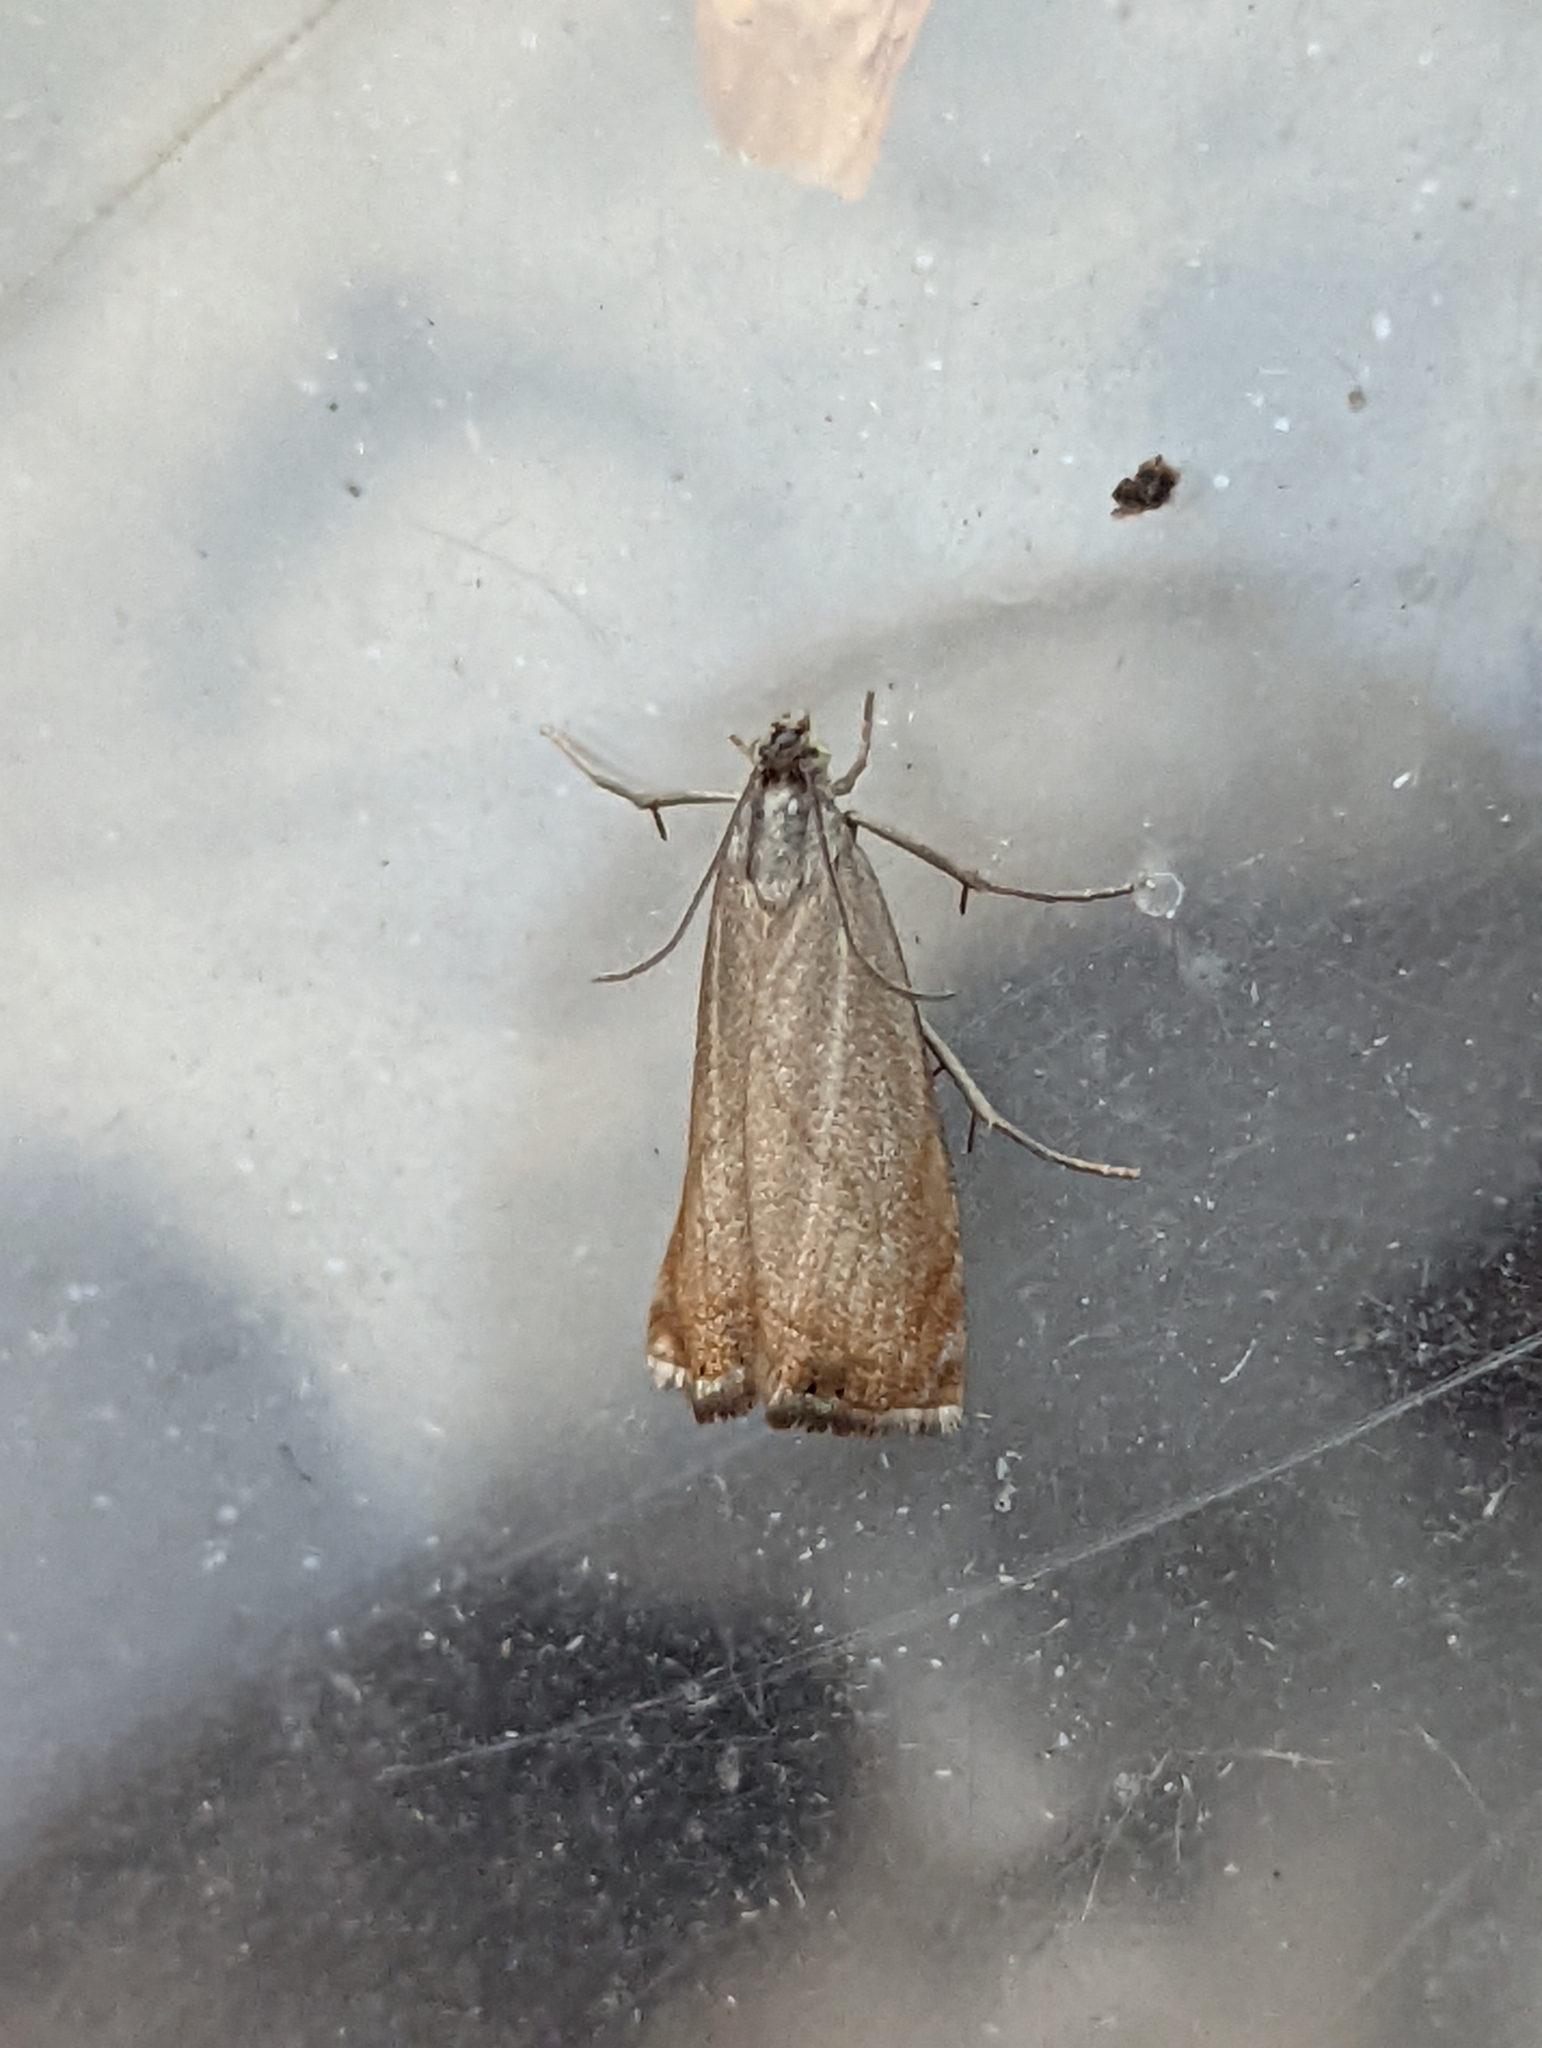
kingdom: Animalia
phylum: Arthropoda
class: Insecta
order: Lepidoptera
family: Crambidae
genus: Chrysoteuchia
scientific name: Chrysoteuchia culmella
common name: Garden grass-veneer
